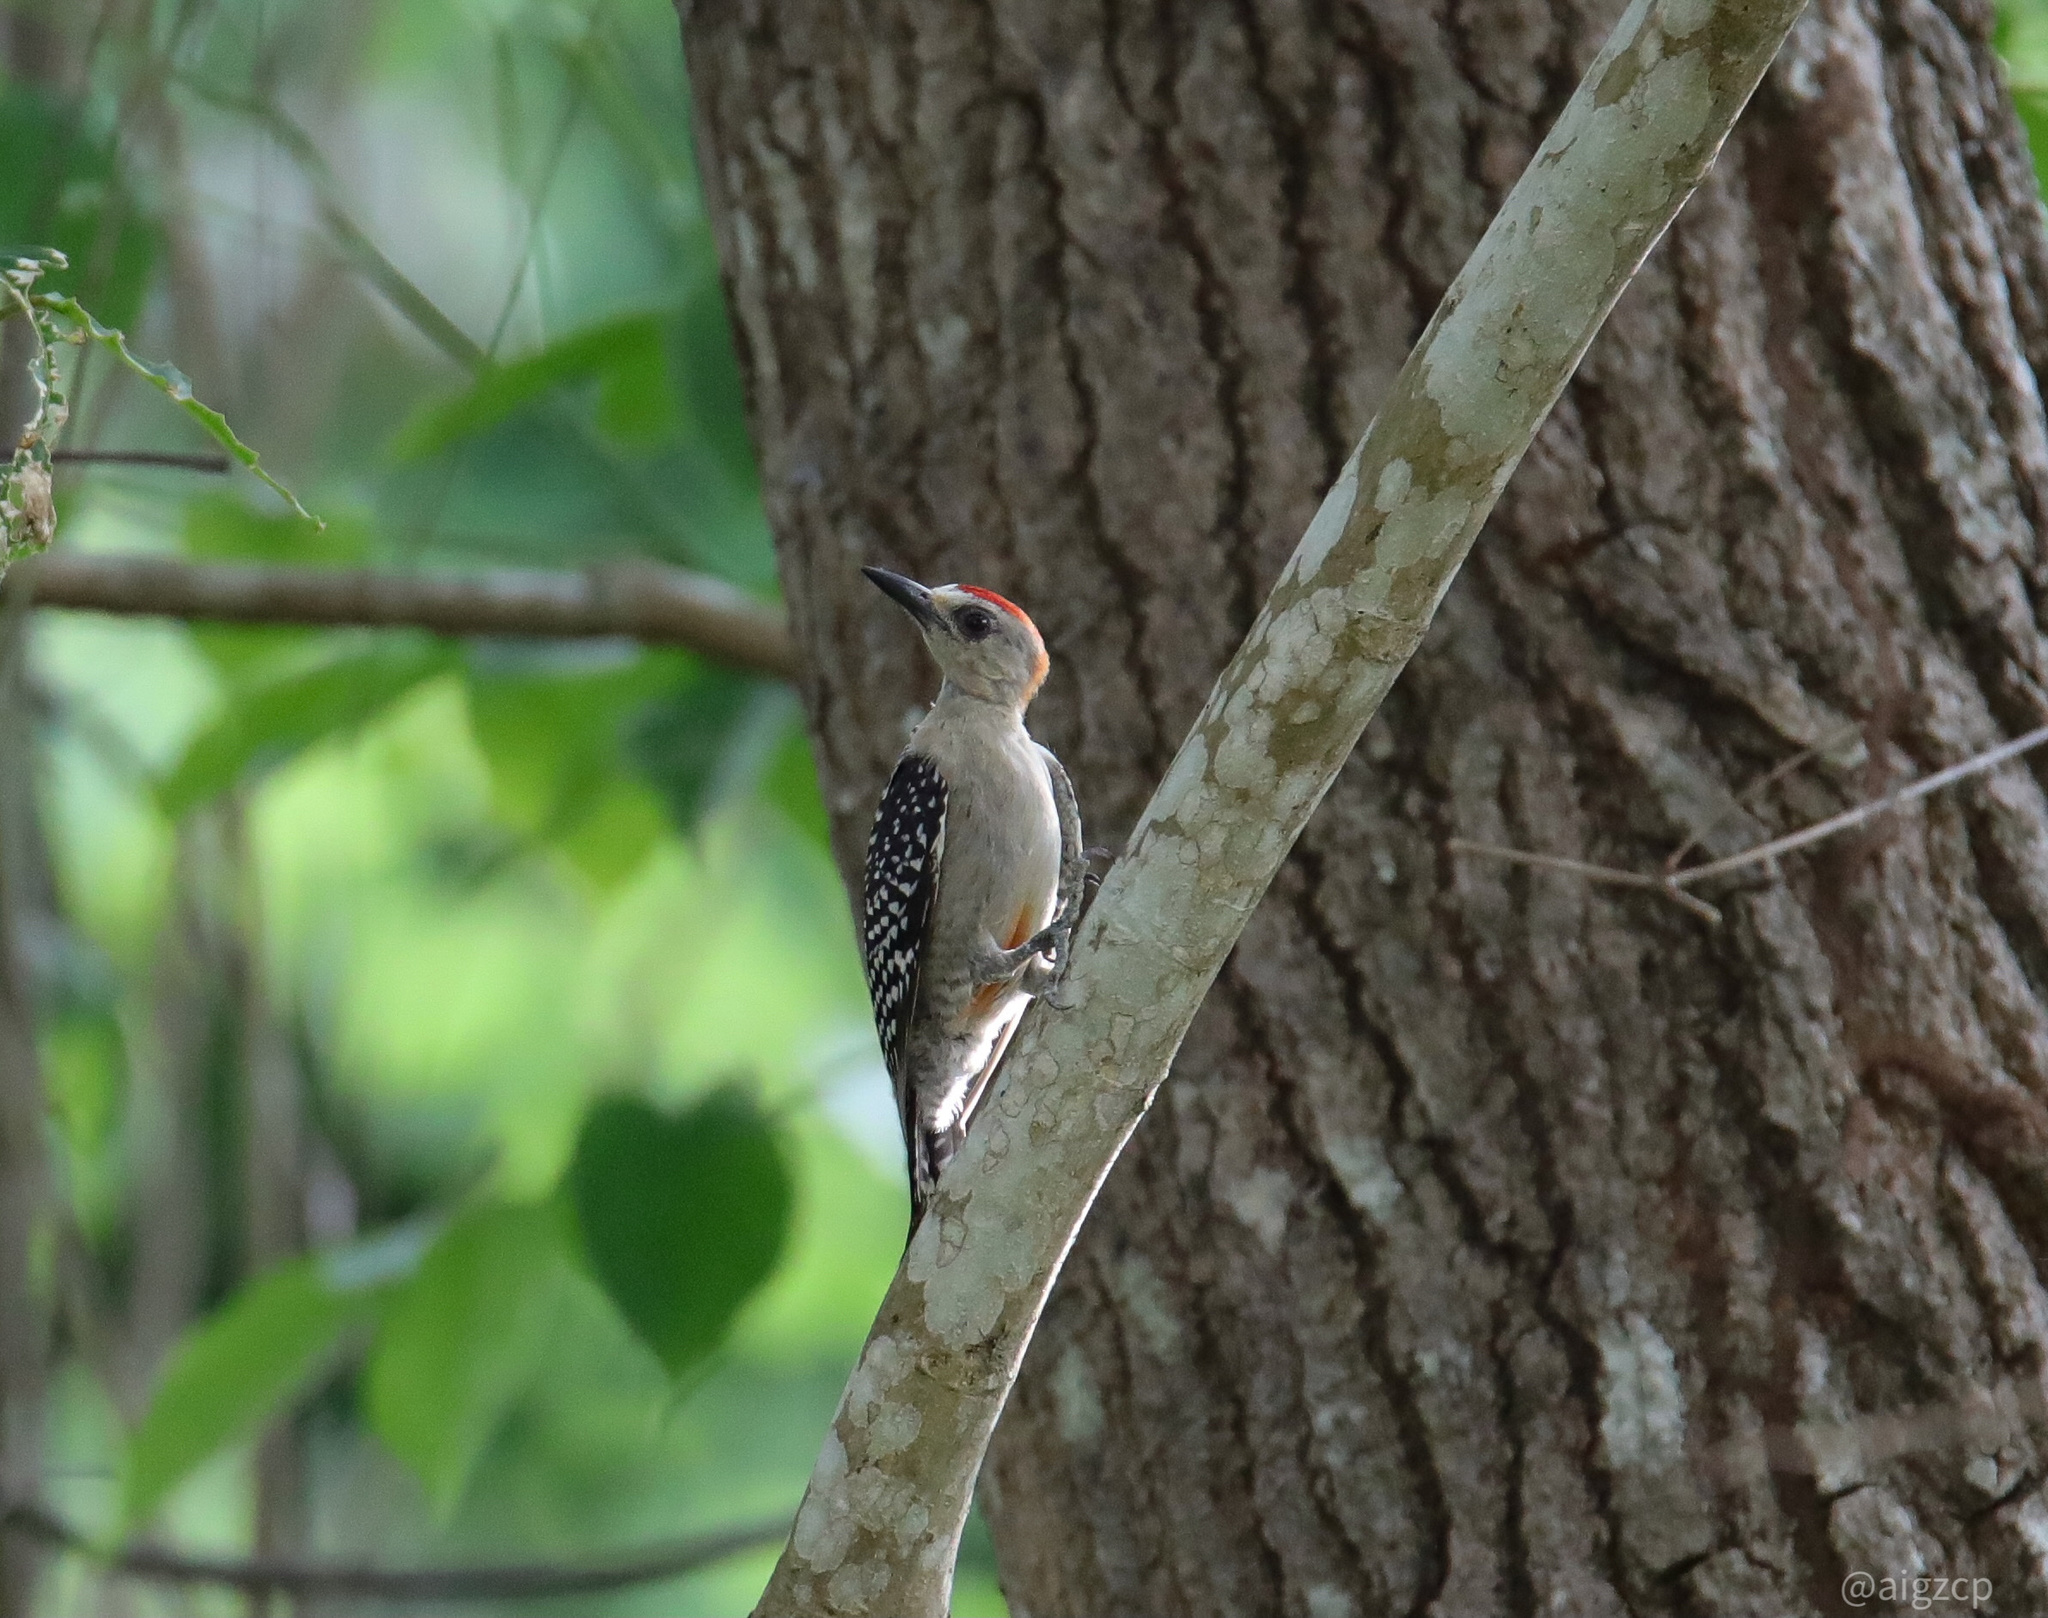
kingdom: Animalia
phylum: Chordata
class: Aves
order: Piciformes
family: Picidae
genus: Melanerpes
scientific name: Melanerpes rubricapillus
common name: Red-crowned woodpecker
